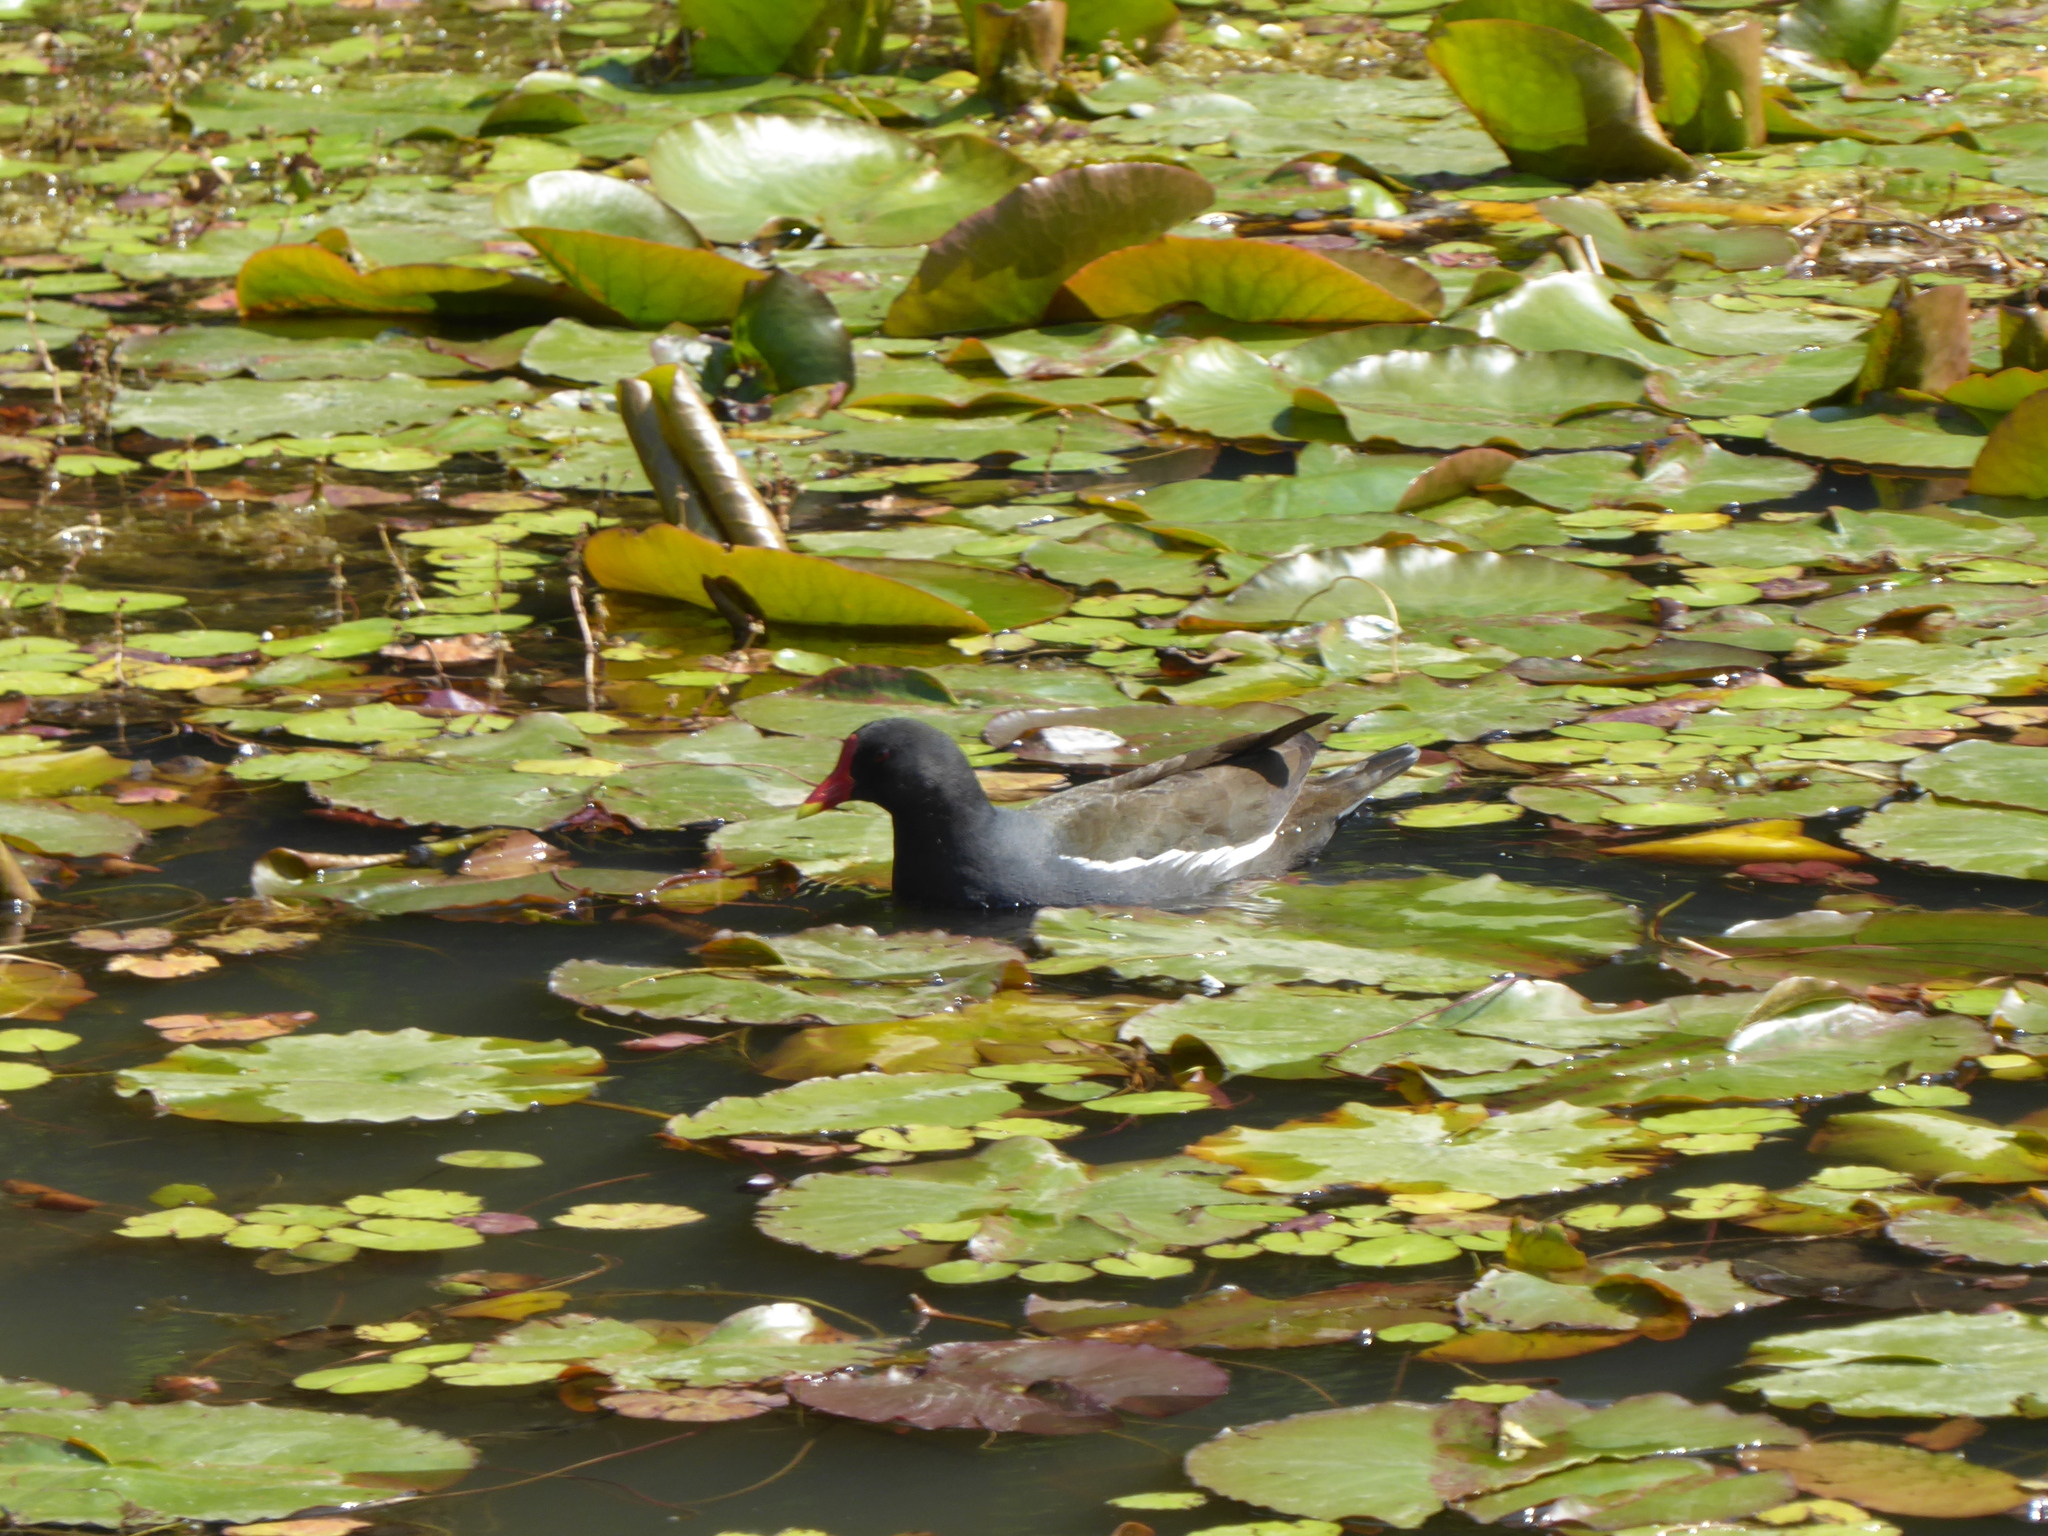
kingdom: Animalia
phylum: Chordata
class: Aves
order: Gruiformes
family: Rallidae
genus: Gallinula
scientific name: Gallinula chloropus
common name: Common moorhen
